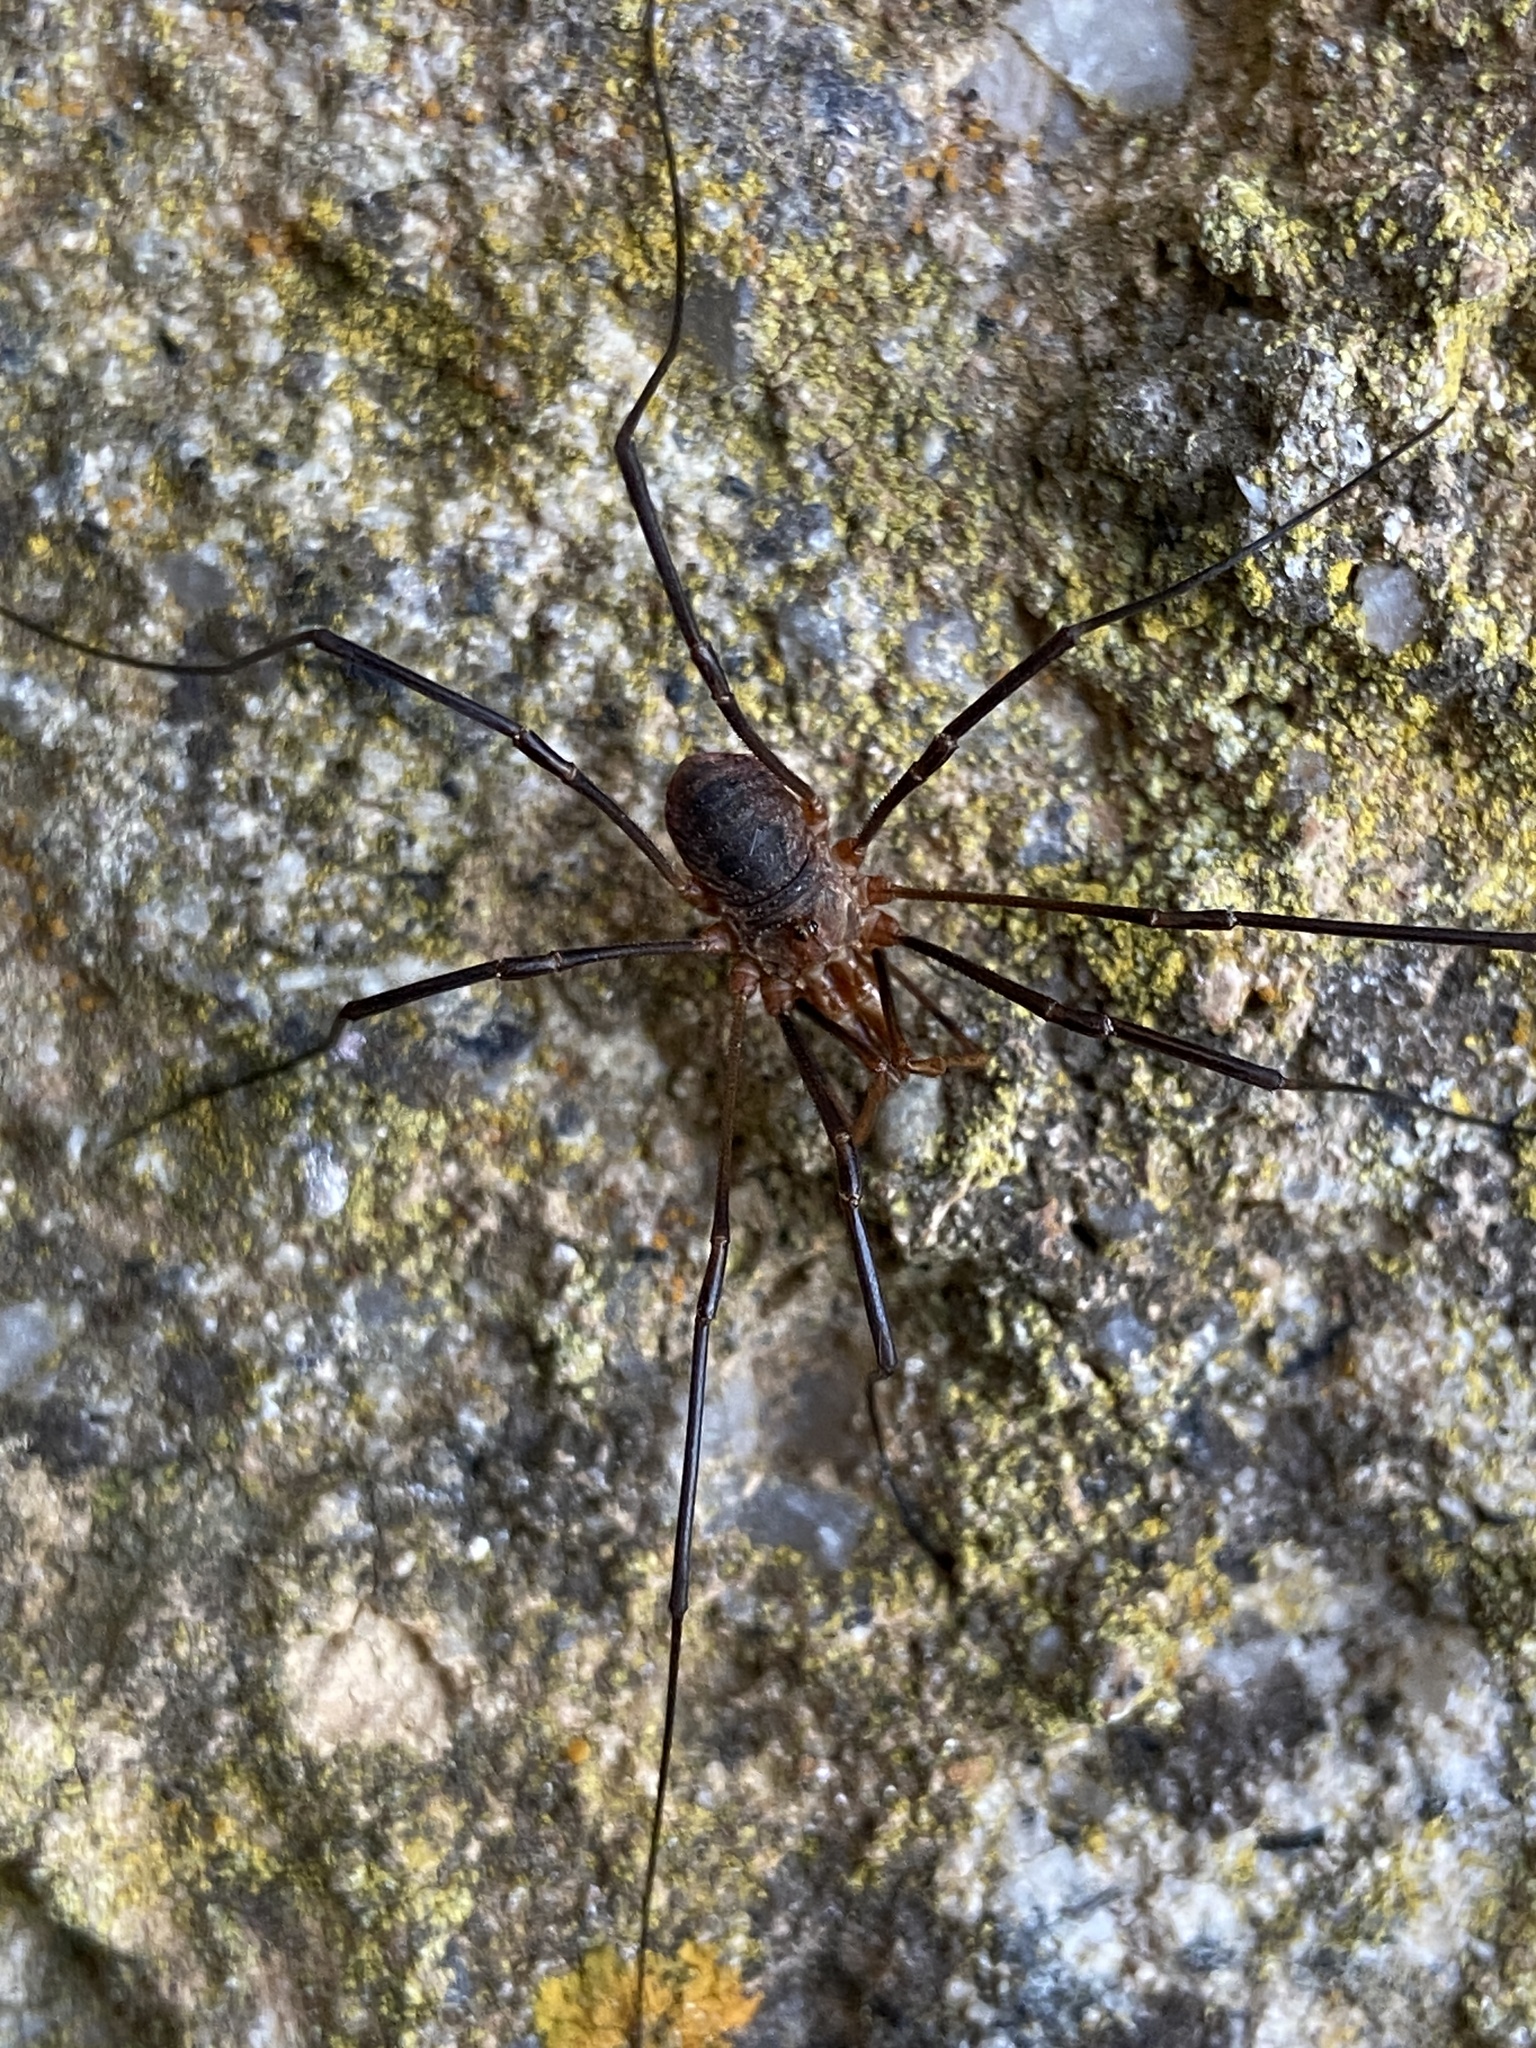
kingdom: Animalia
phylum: Arthropoda
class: Arachnida
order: Opiliones
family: Phalangiidae
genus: Phalangium
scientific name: Phalangium opilio
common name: Daddy longleg
